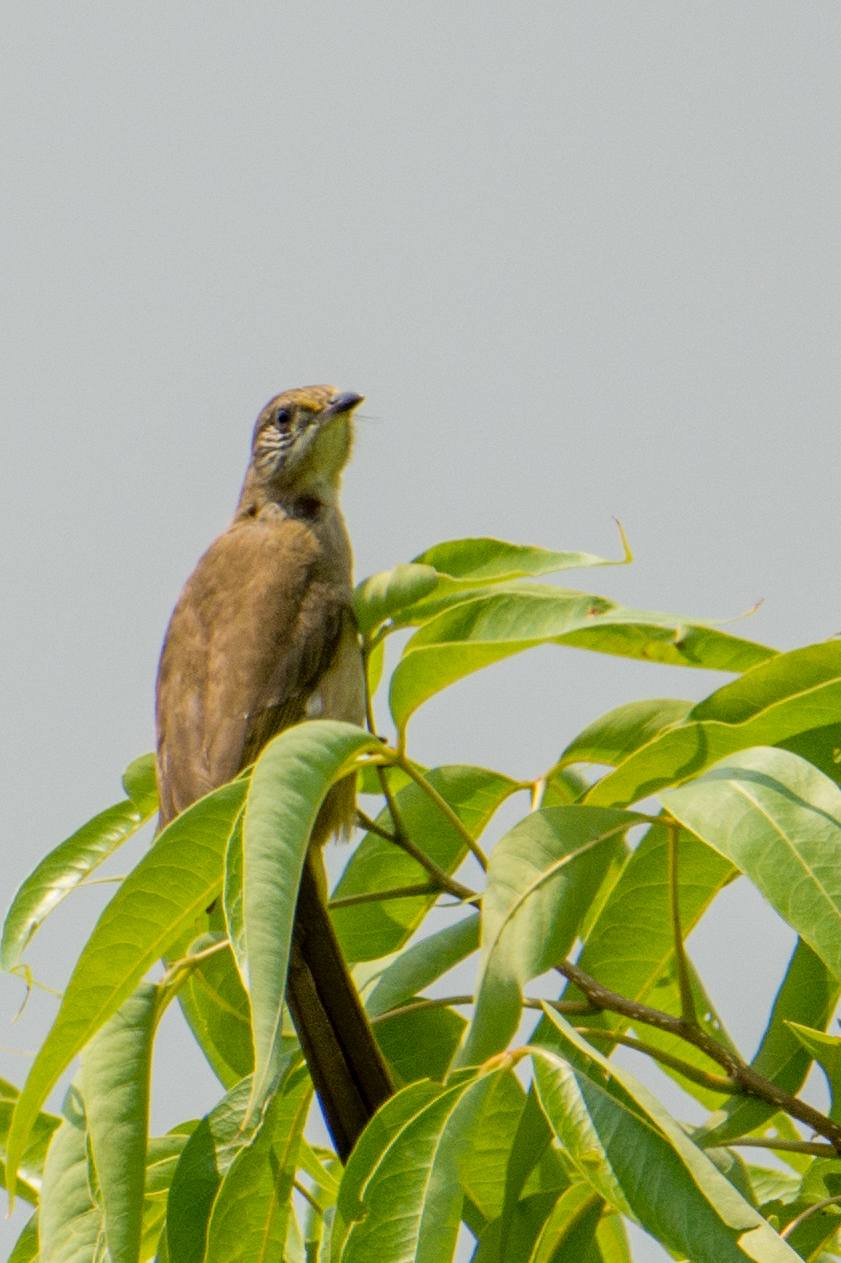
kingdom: Animalia
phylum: Chordata
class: Aves
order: Passeriformes
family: Pycnonotidae
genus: Pycnonotus
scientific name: Pycnonotus blanfordi
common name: Streak-eared bulbul
